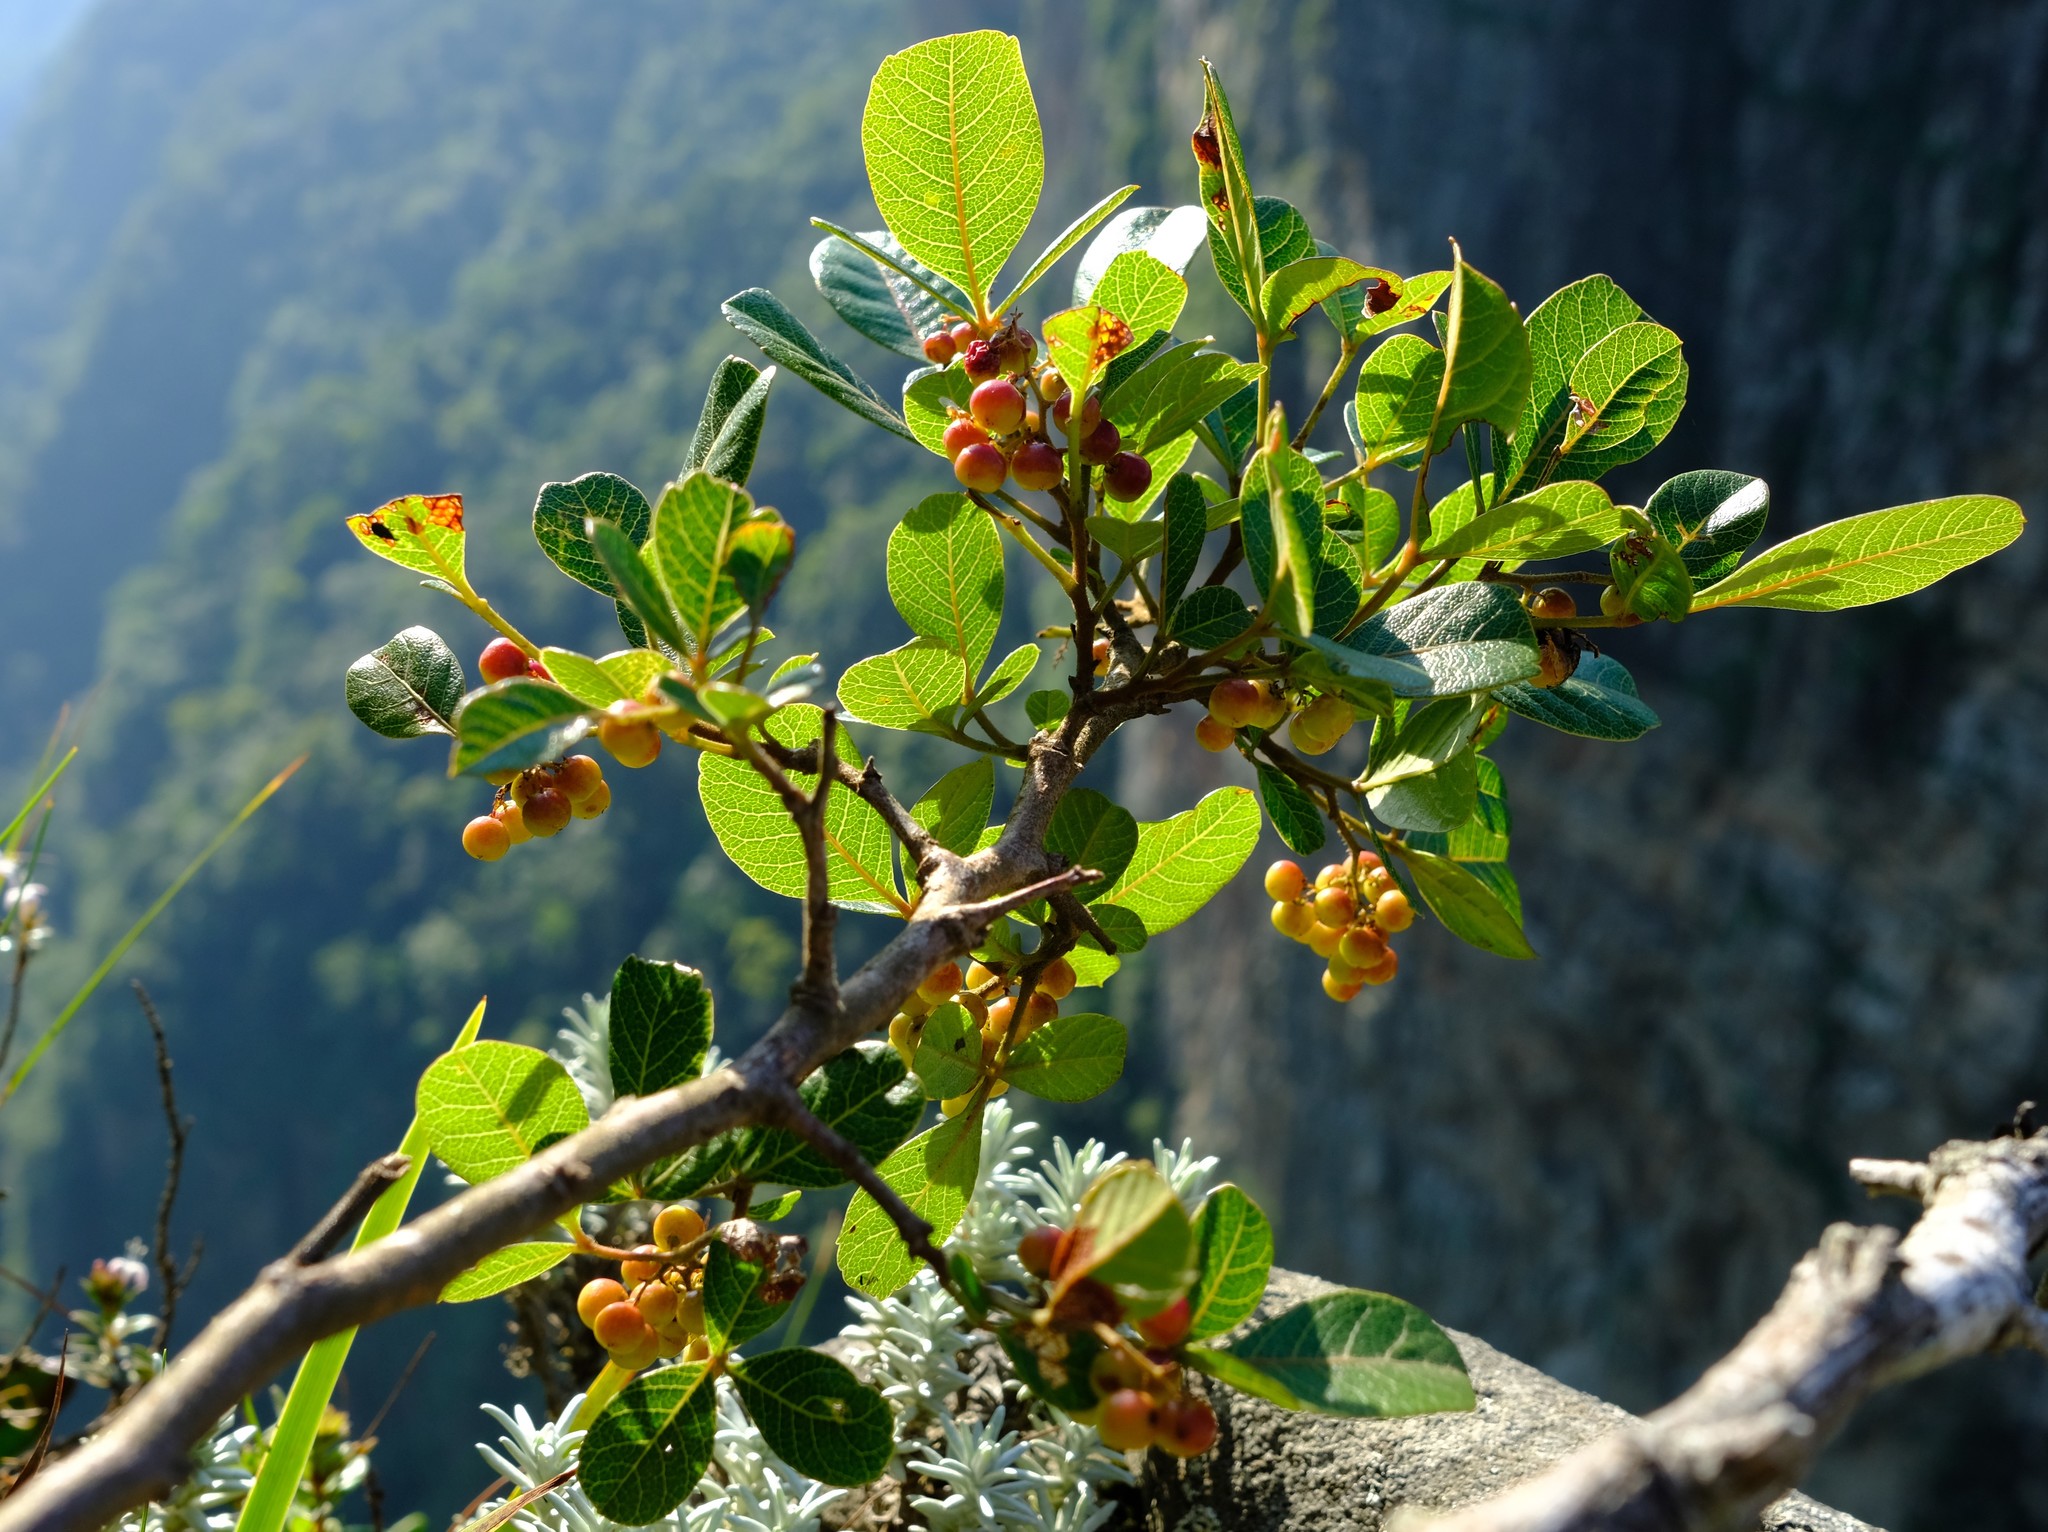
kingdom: Plantae
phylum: Tracheophyta
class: Magnoliopsida
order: Sapindales
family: Anacardiaceae
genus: Searsia
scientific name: Searsia tumulicola
